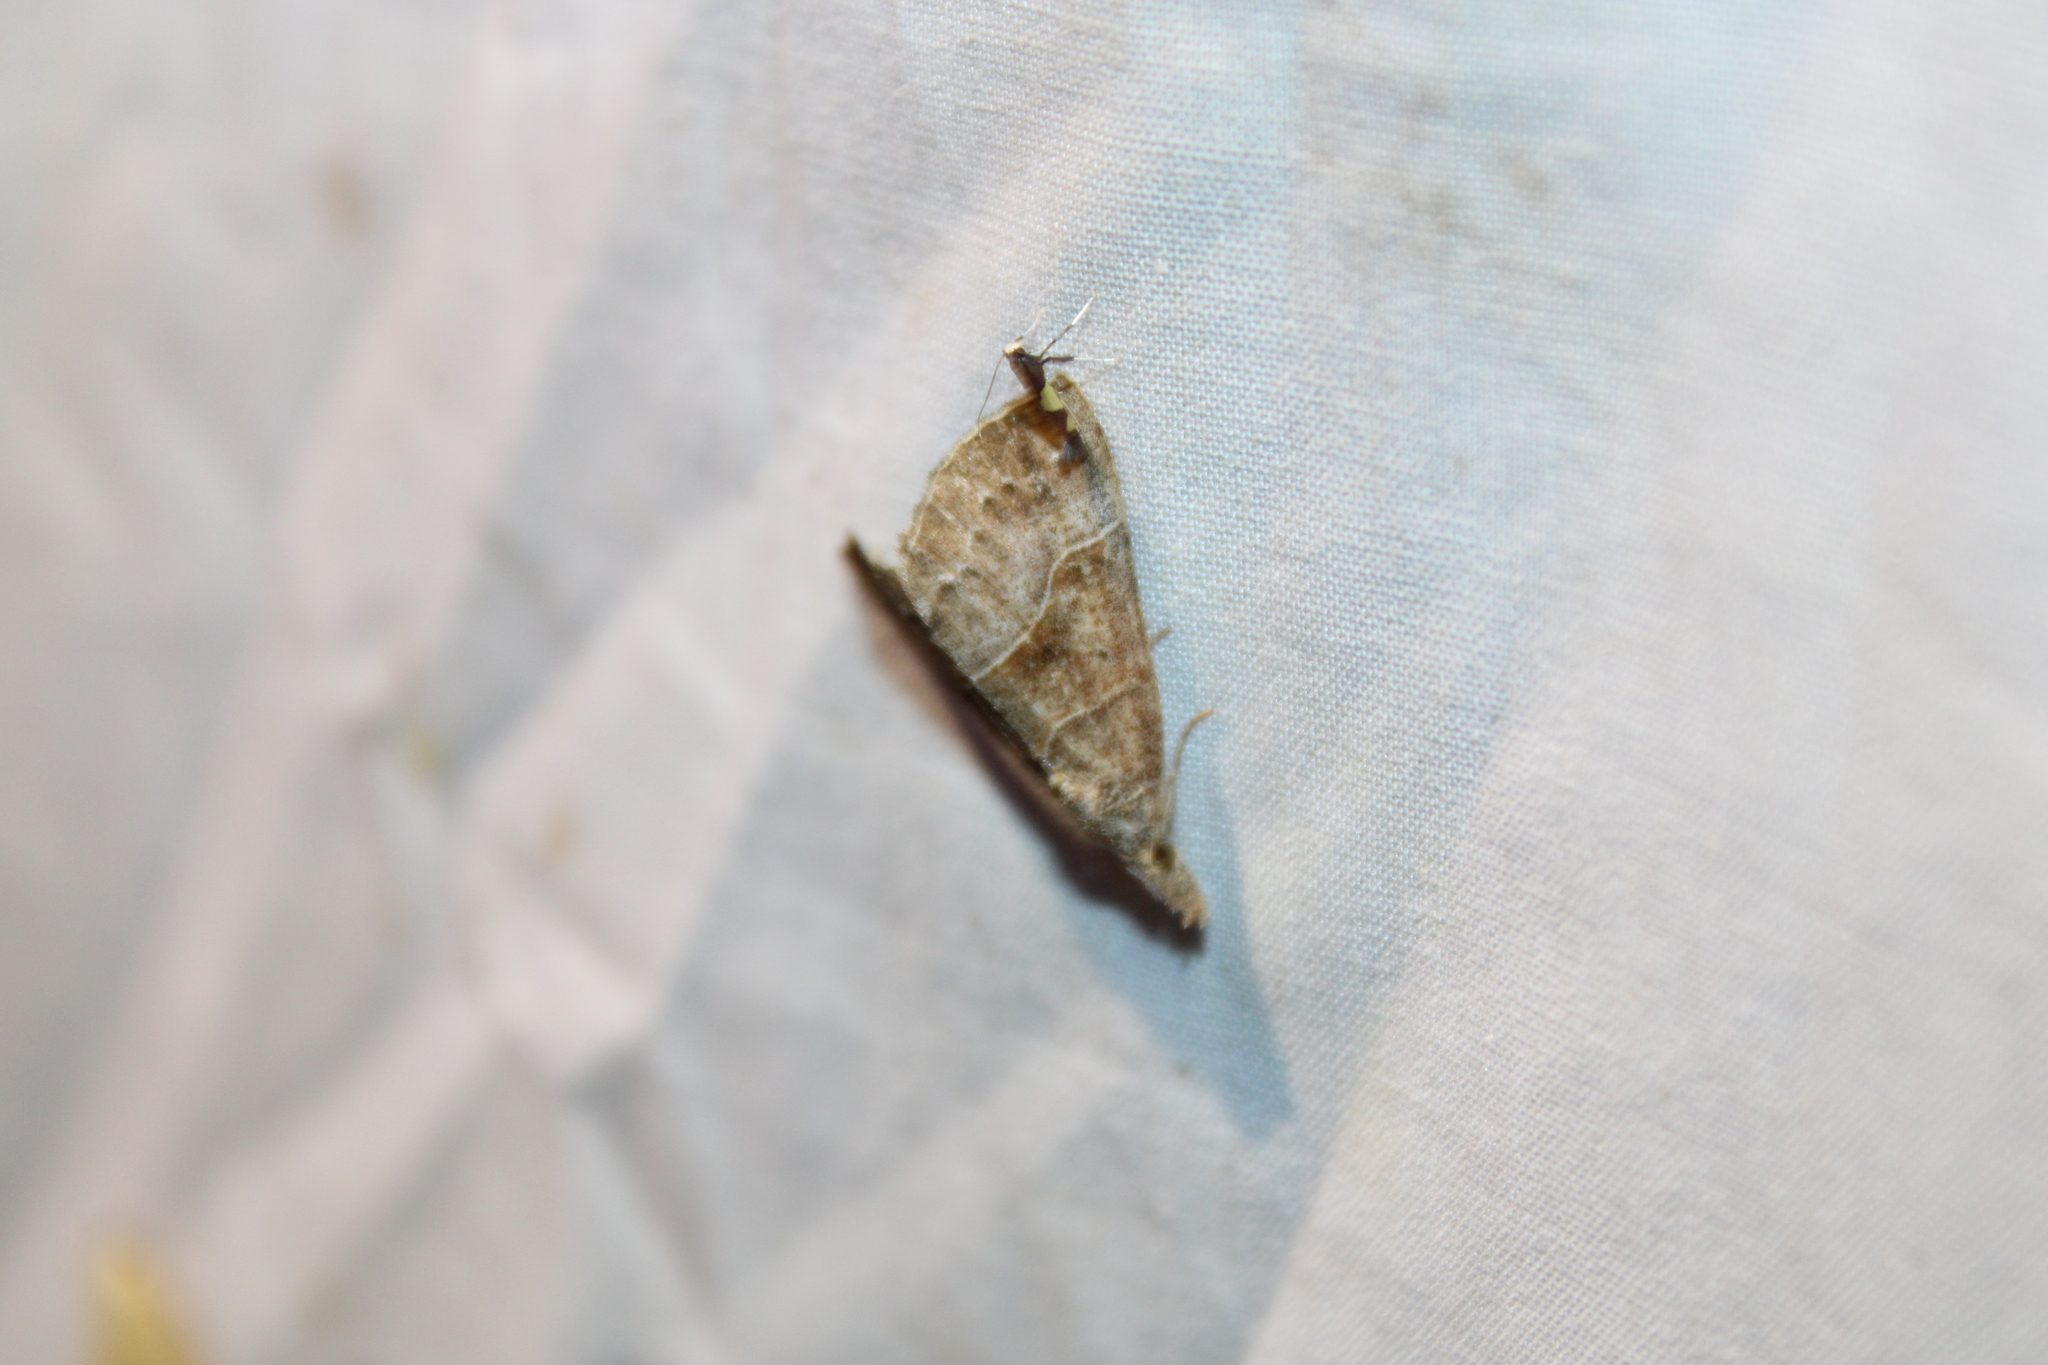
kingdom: Animalia
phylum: Arthropoda
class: Insecta
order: Lepidoptera
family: Erebidae
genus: Hypena
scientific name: Hypena deceptalis
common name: Deceptive snout
